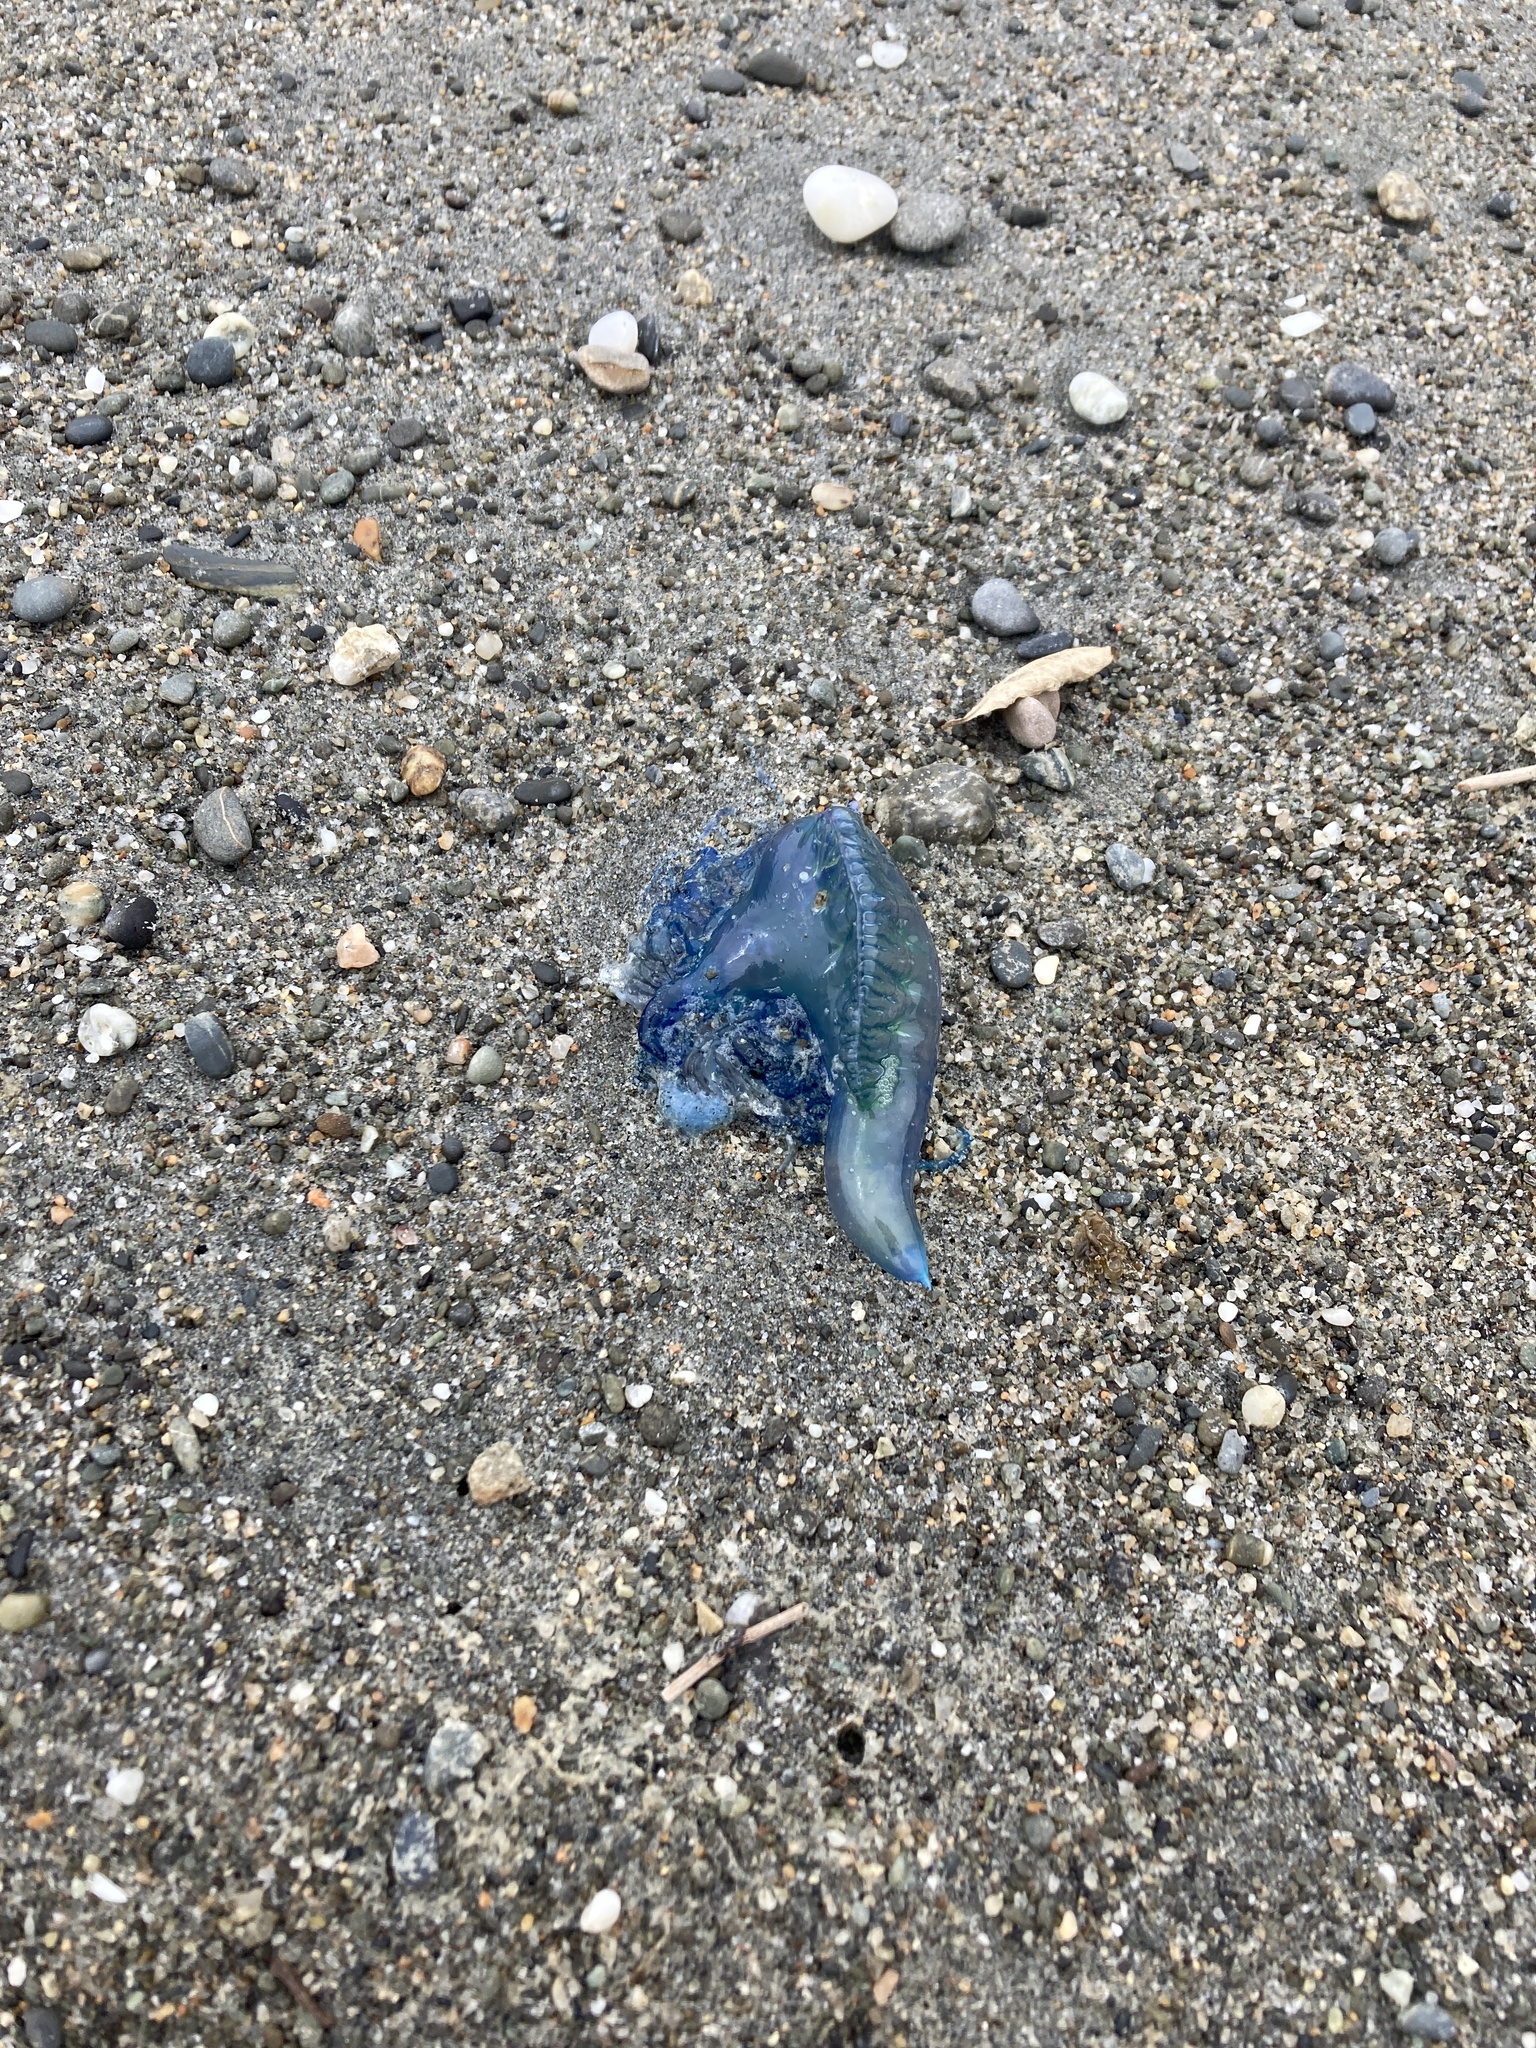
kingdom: Animalia
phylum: Cnidaria
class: Hydrozoa
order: Siphonophorae
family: Physaliidae
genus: Physalia
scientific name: Physalia physalis
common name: Portuguese man-of-war
